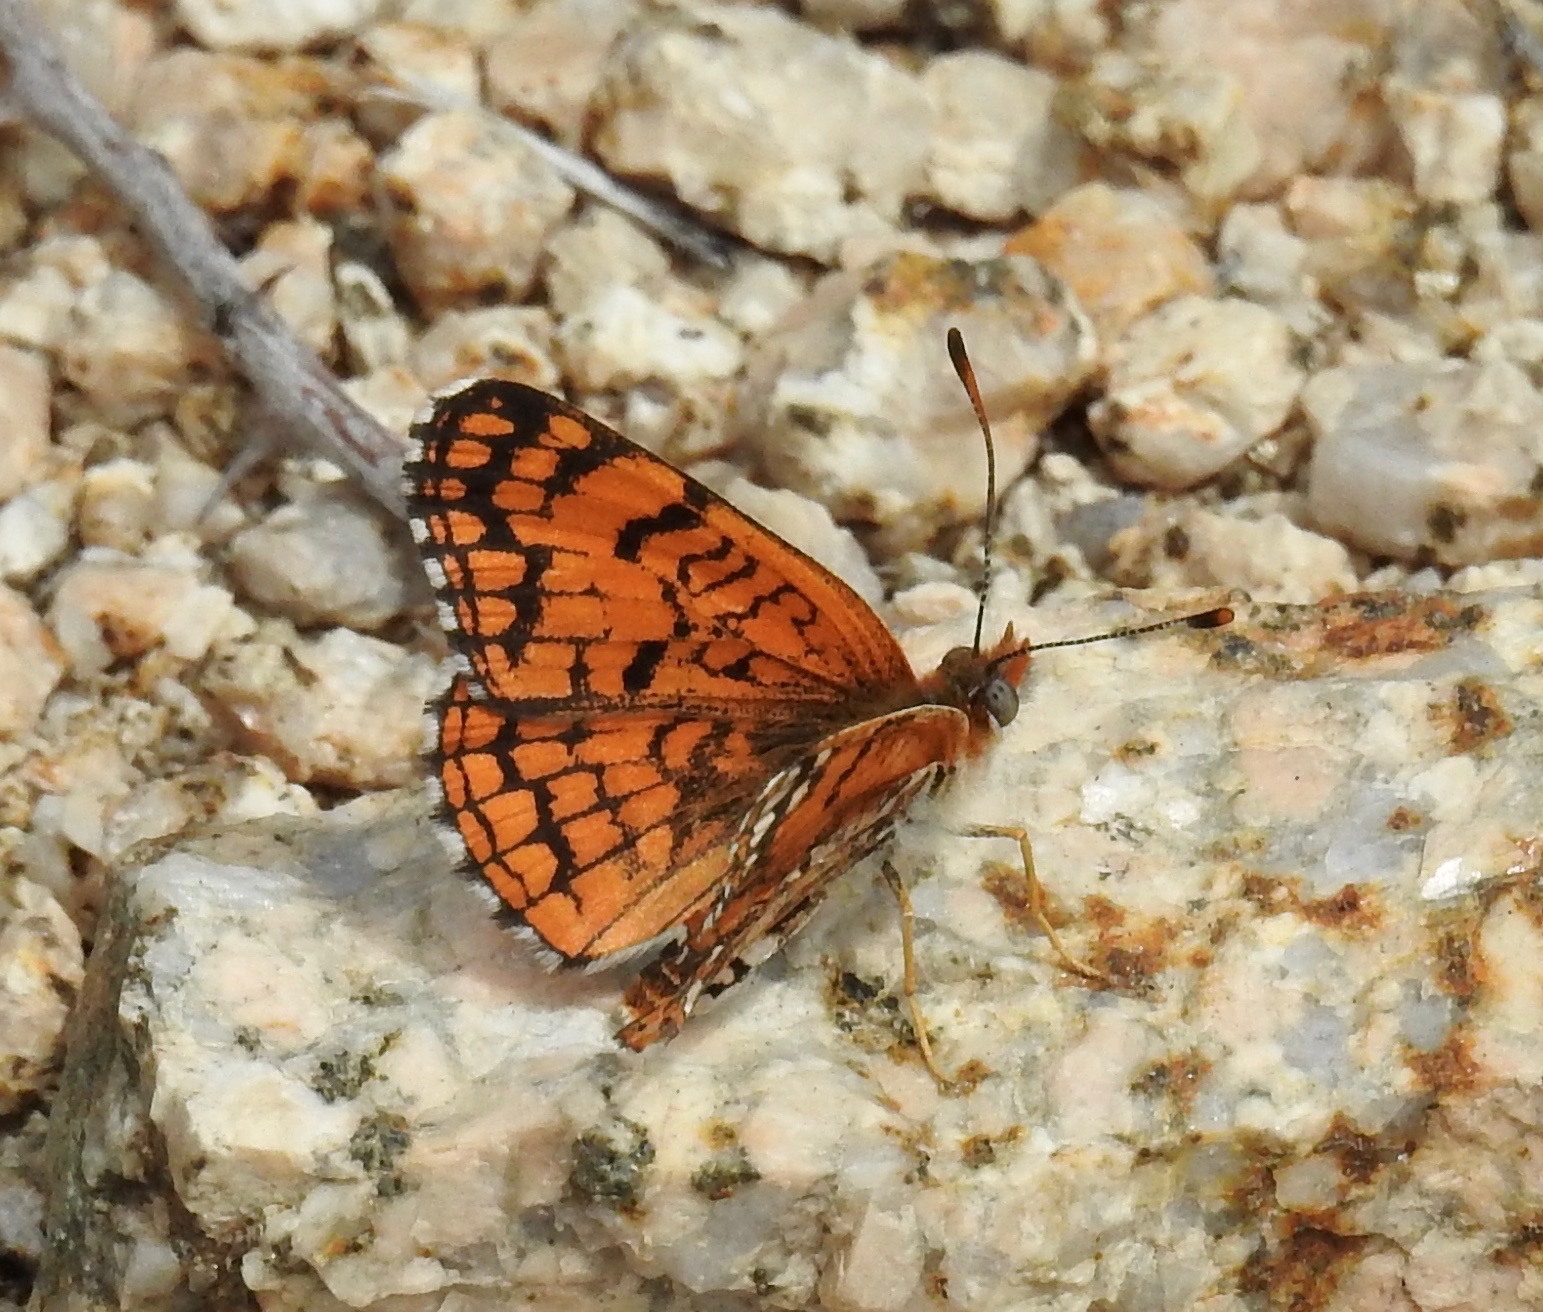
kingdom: Animalia
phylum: Arthropoda
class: Insecta
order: Lepidoptera
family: Nymphalidae
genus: Chlosyne
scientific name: Chlosyne acastus
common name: Sagebrush checkerspot
